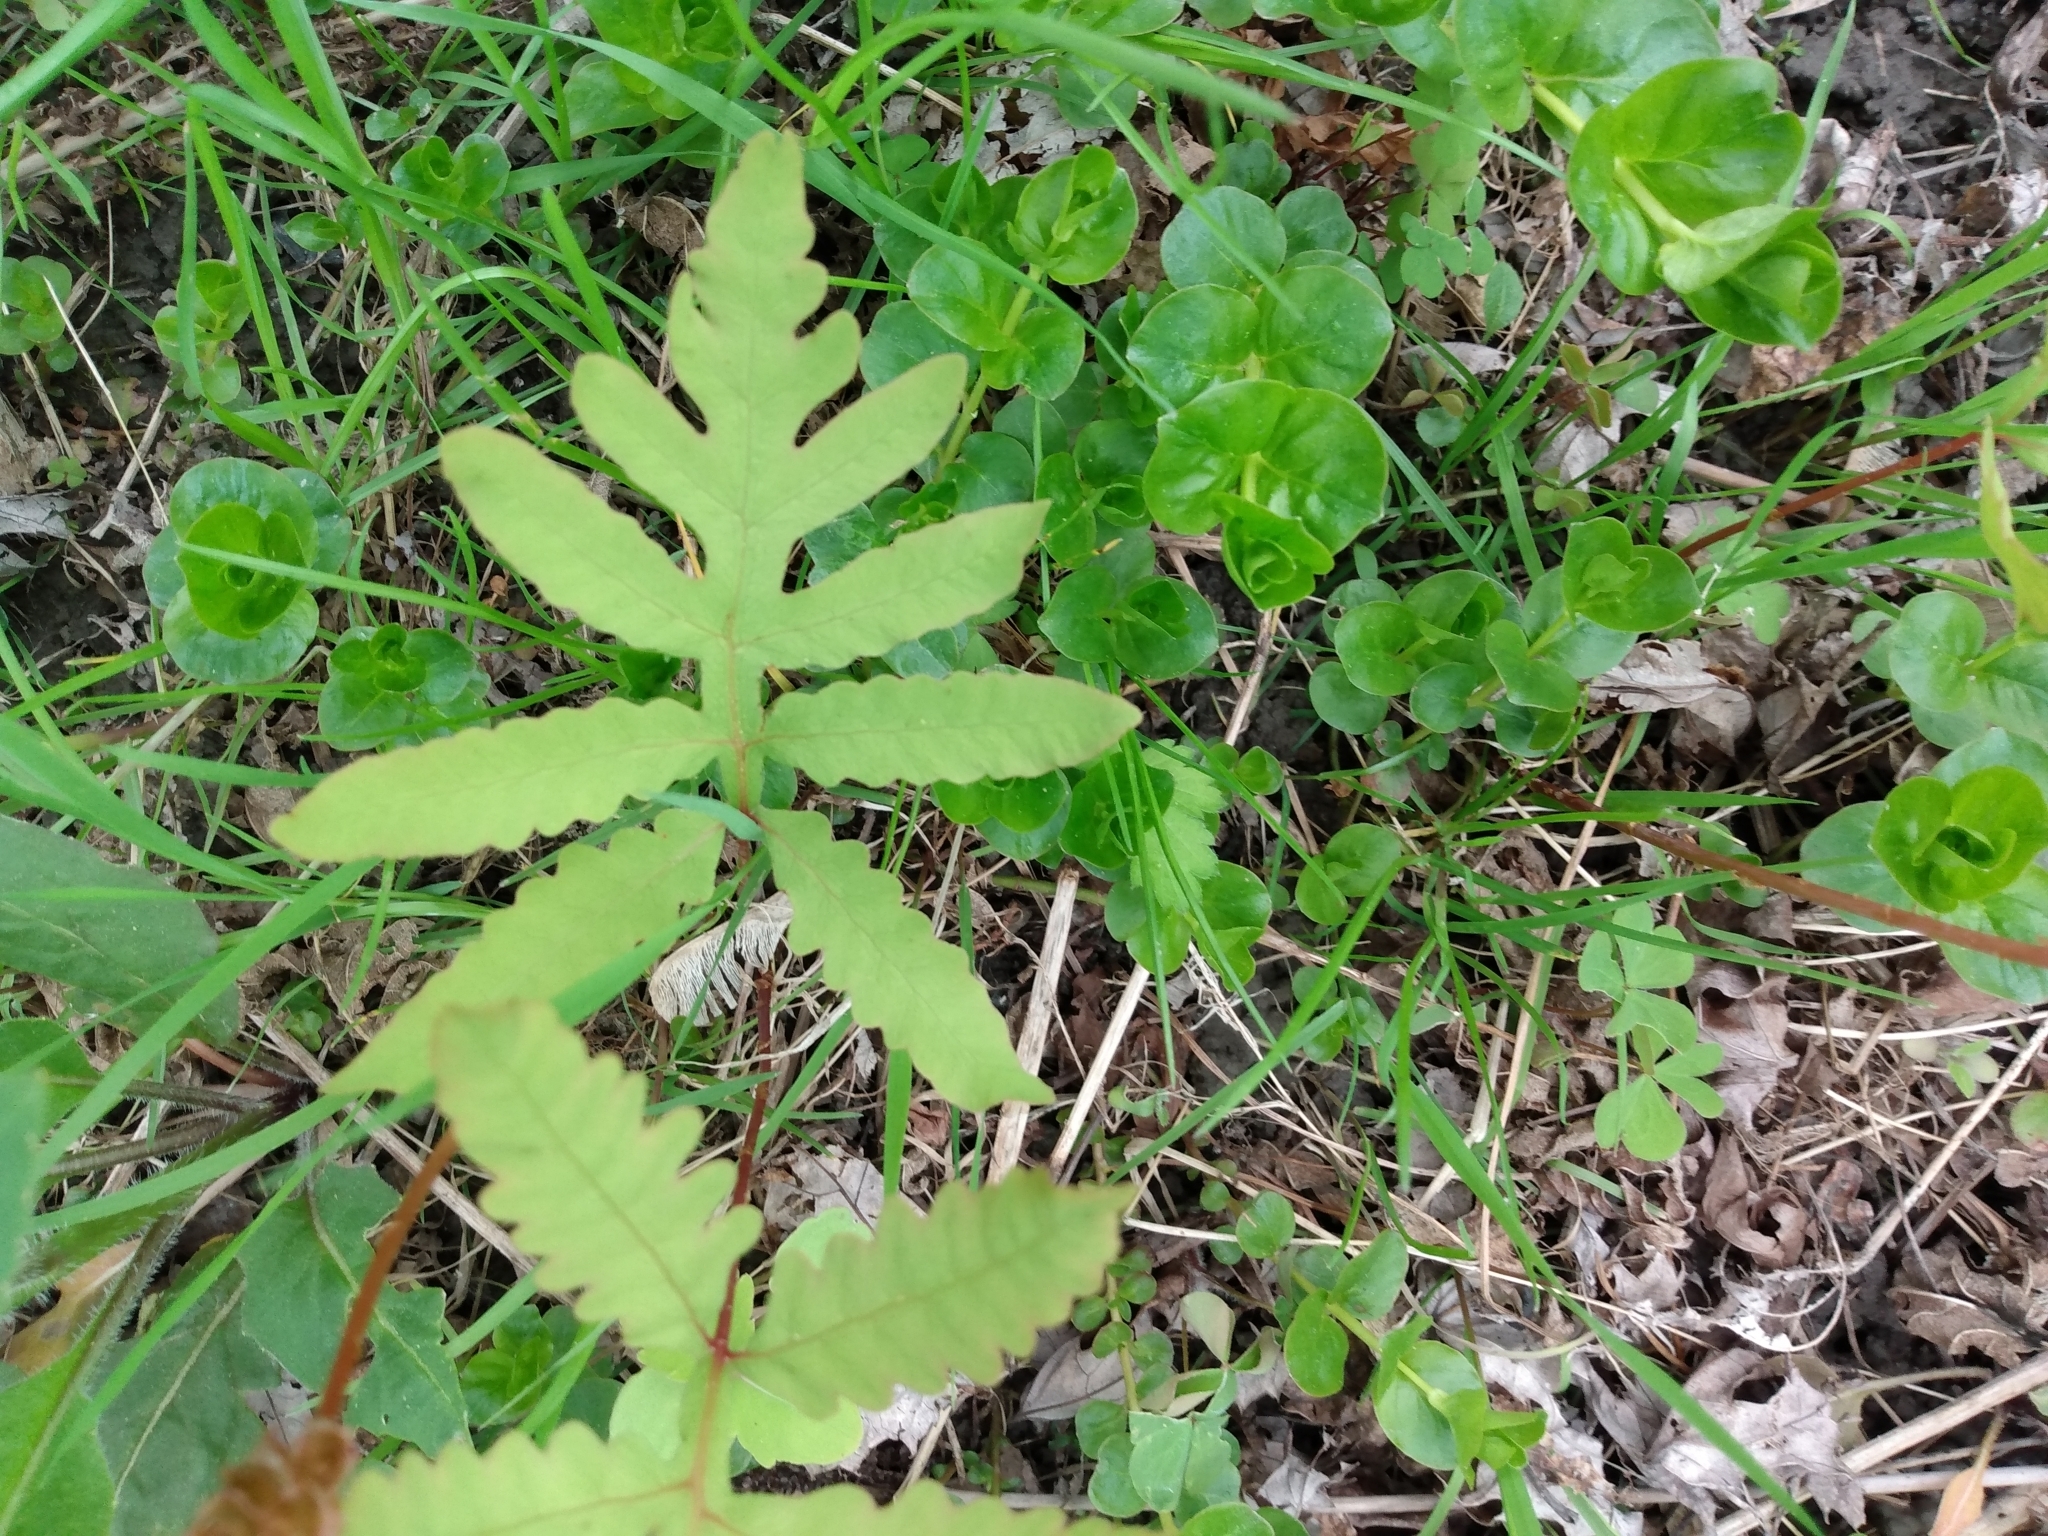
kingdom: Plantae
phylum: Tracheophyta
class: Polypodiopsida
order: Polypodiales
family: Onocleaceae
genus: Onoclea
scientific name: Onoclea sensibilis
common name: Sensitive fern
